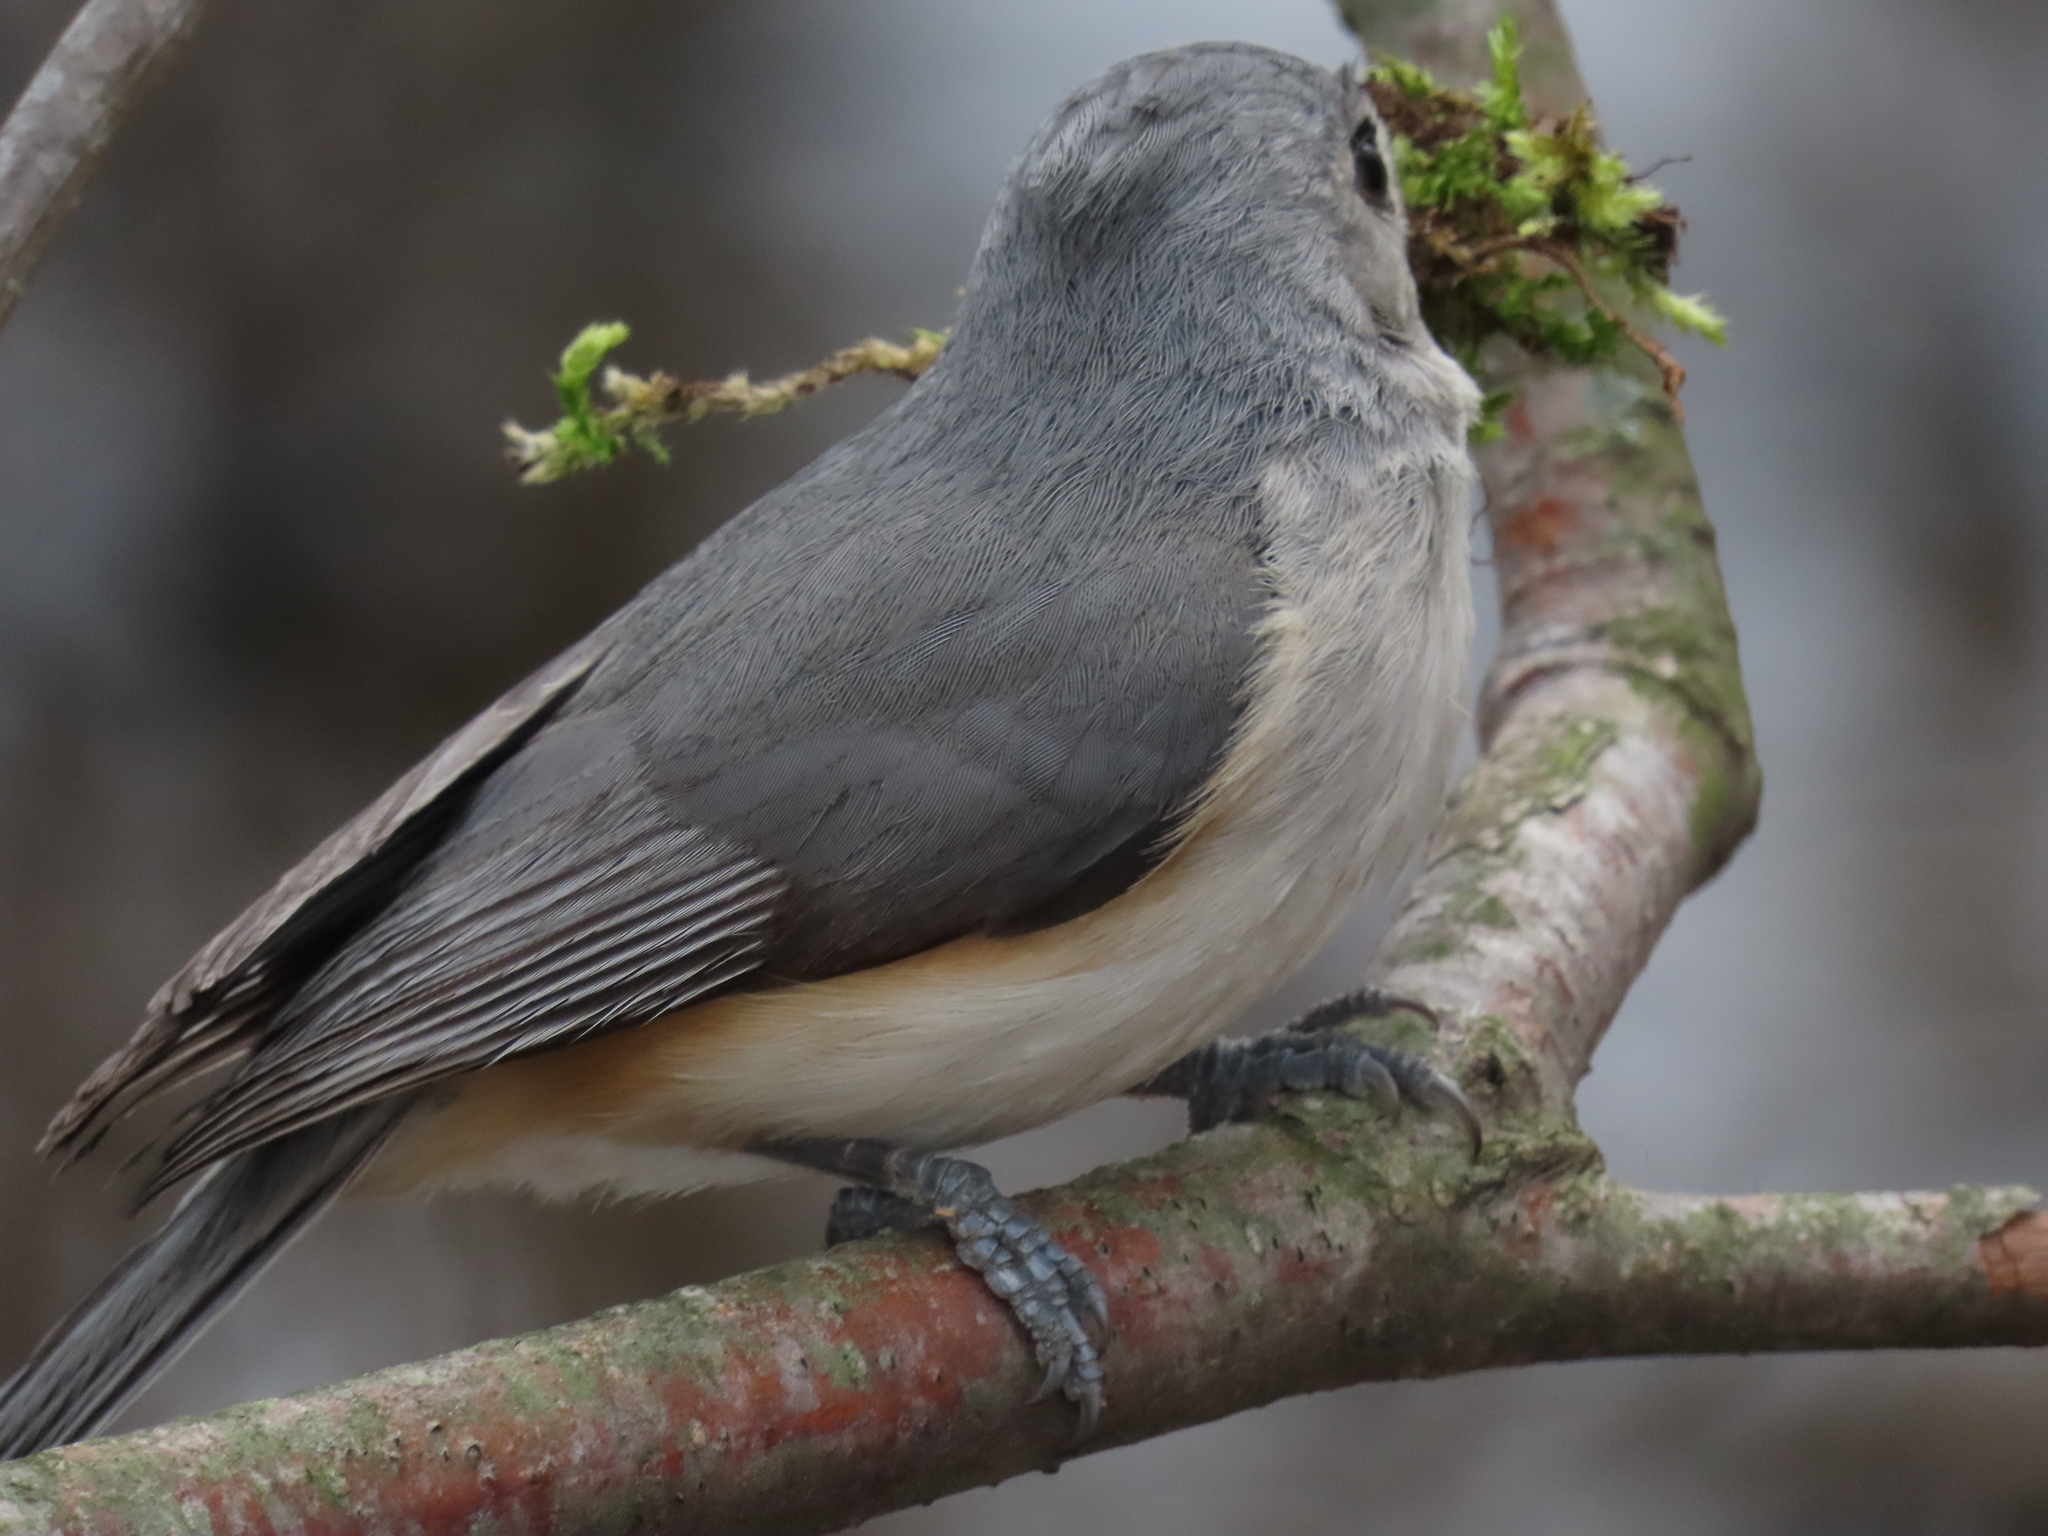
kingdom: Animalia
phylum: Chordata
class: Aves
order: Passeriformes
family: Paridae
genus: Baeolophus
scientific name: Baeolophus bicolor
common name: Tufted titmouse
